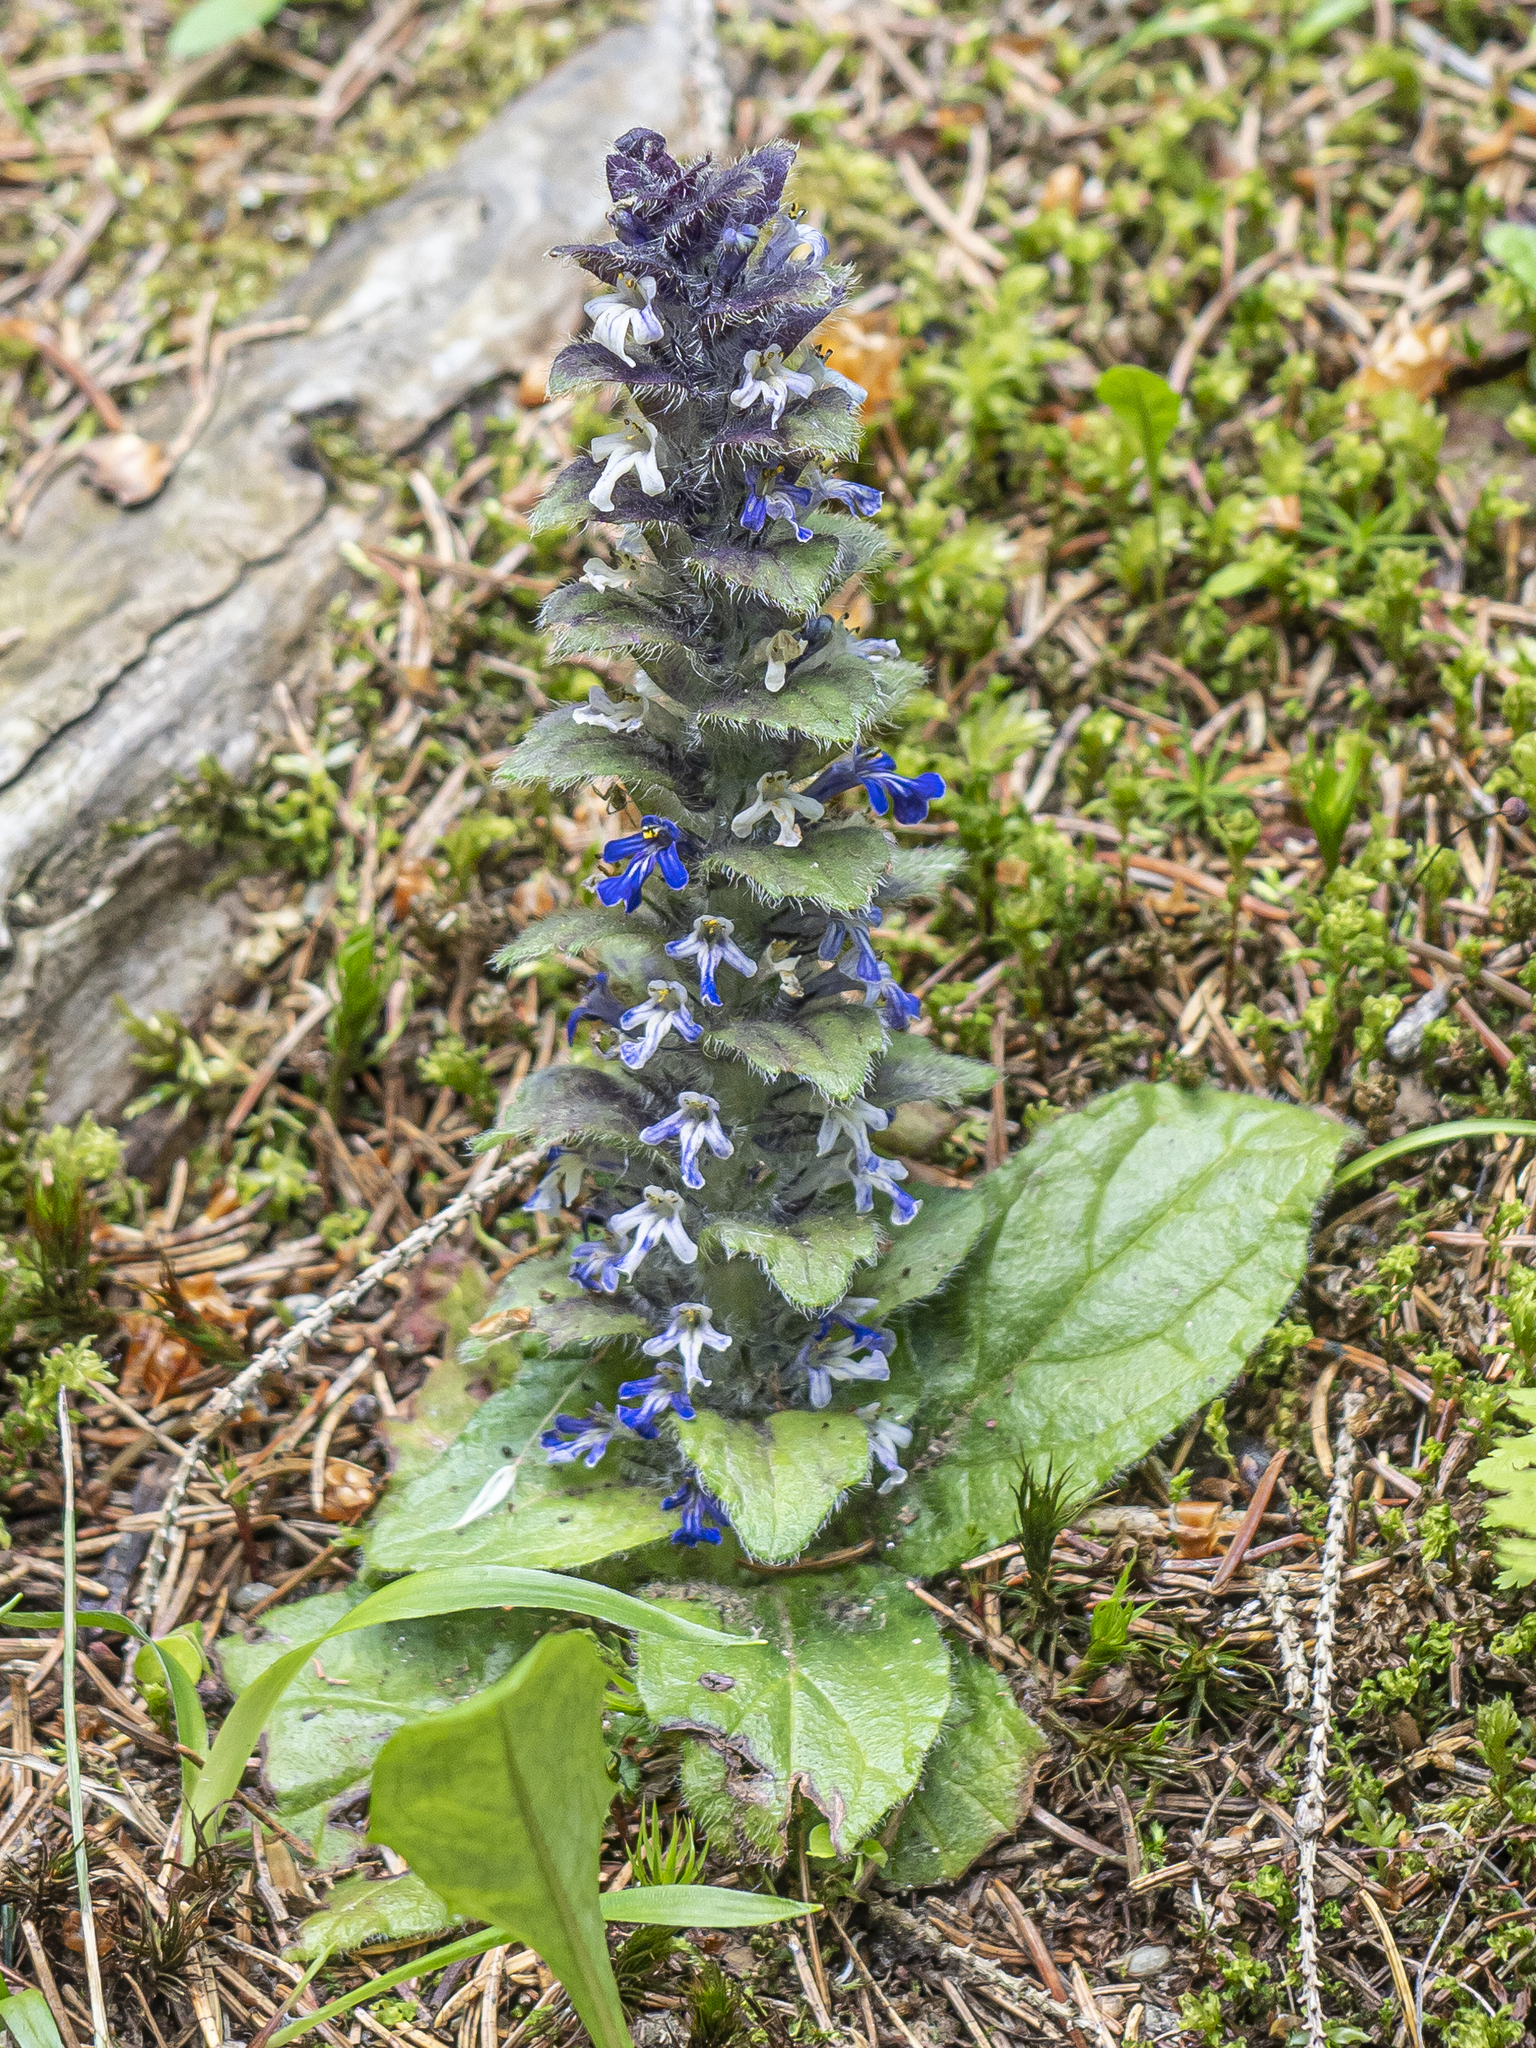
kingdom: Plantae
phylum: Tracheophyta
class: Magnoliopsida
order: Lamiales
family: Lamiaceae
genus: Ajuga
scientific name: Ajuga pyramidalis
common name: Pyramid bugle
